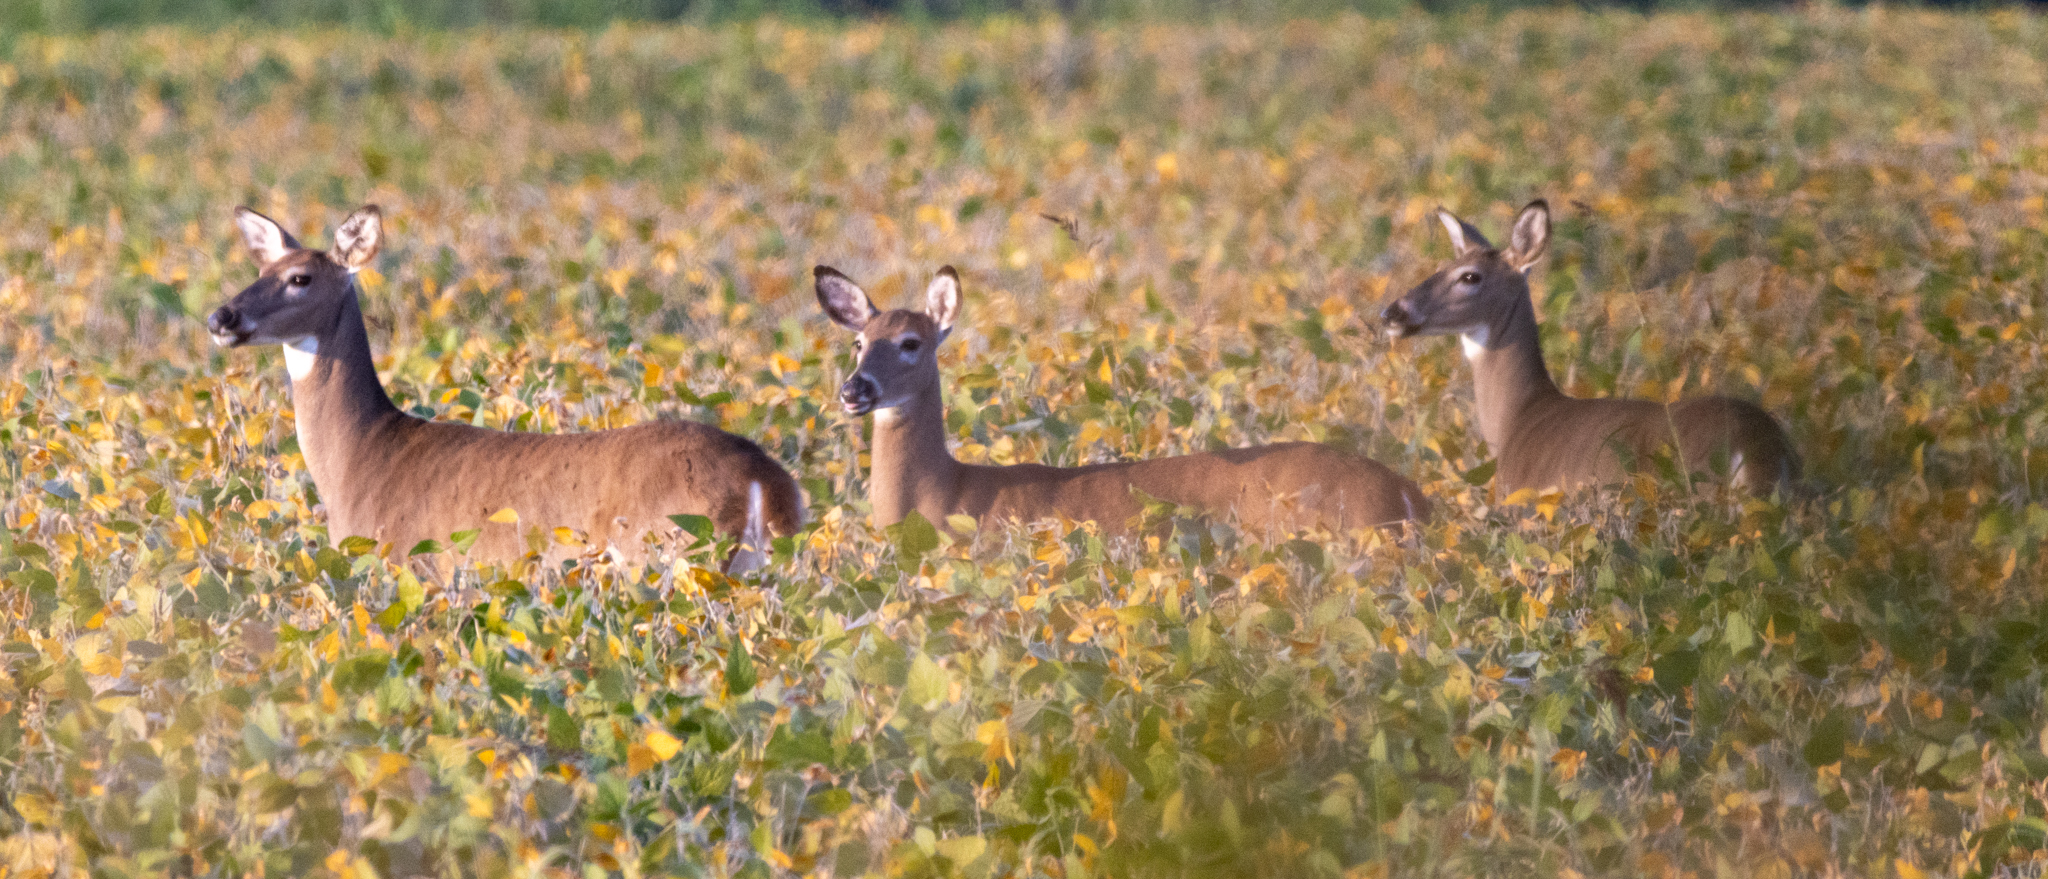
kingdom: Animalia
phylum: Chordata
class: Mammalia
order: Artiodactyla
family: Cervidae
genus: Odocoileus
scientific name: Odocoileus virginianus
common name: White-tailed deer
